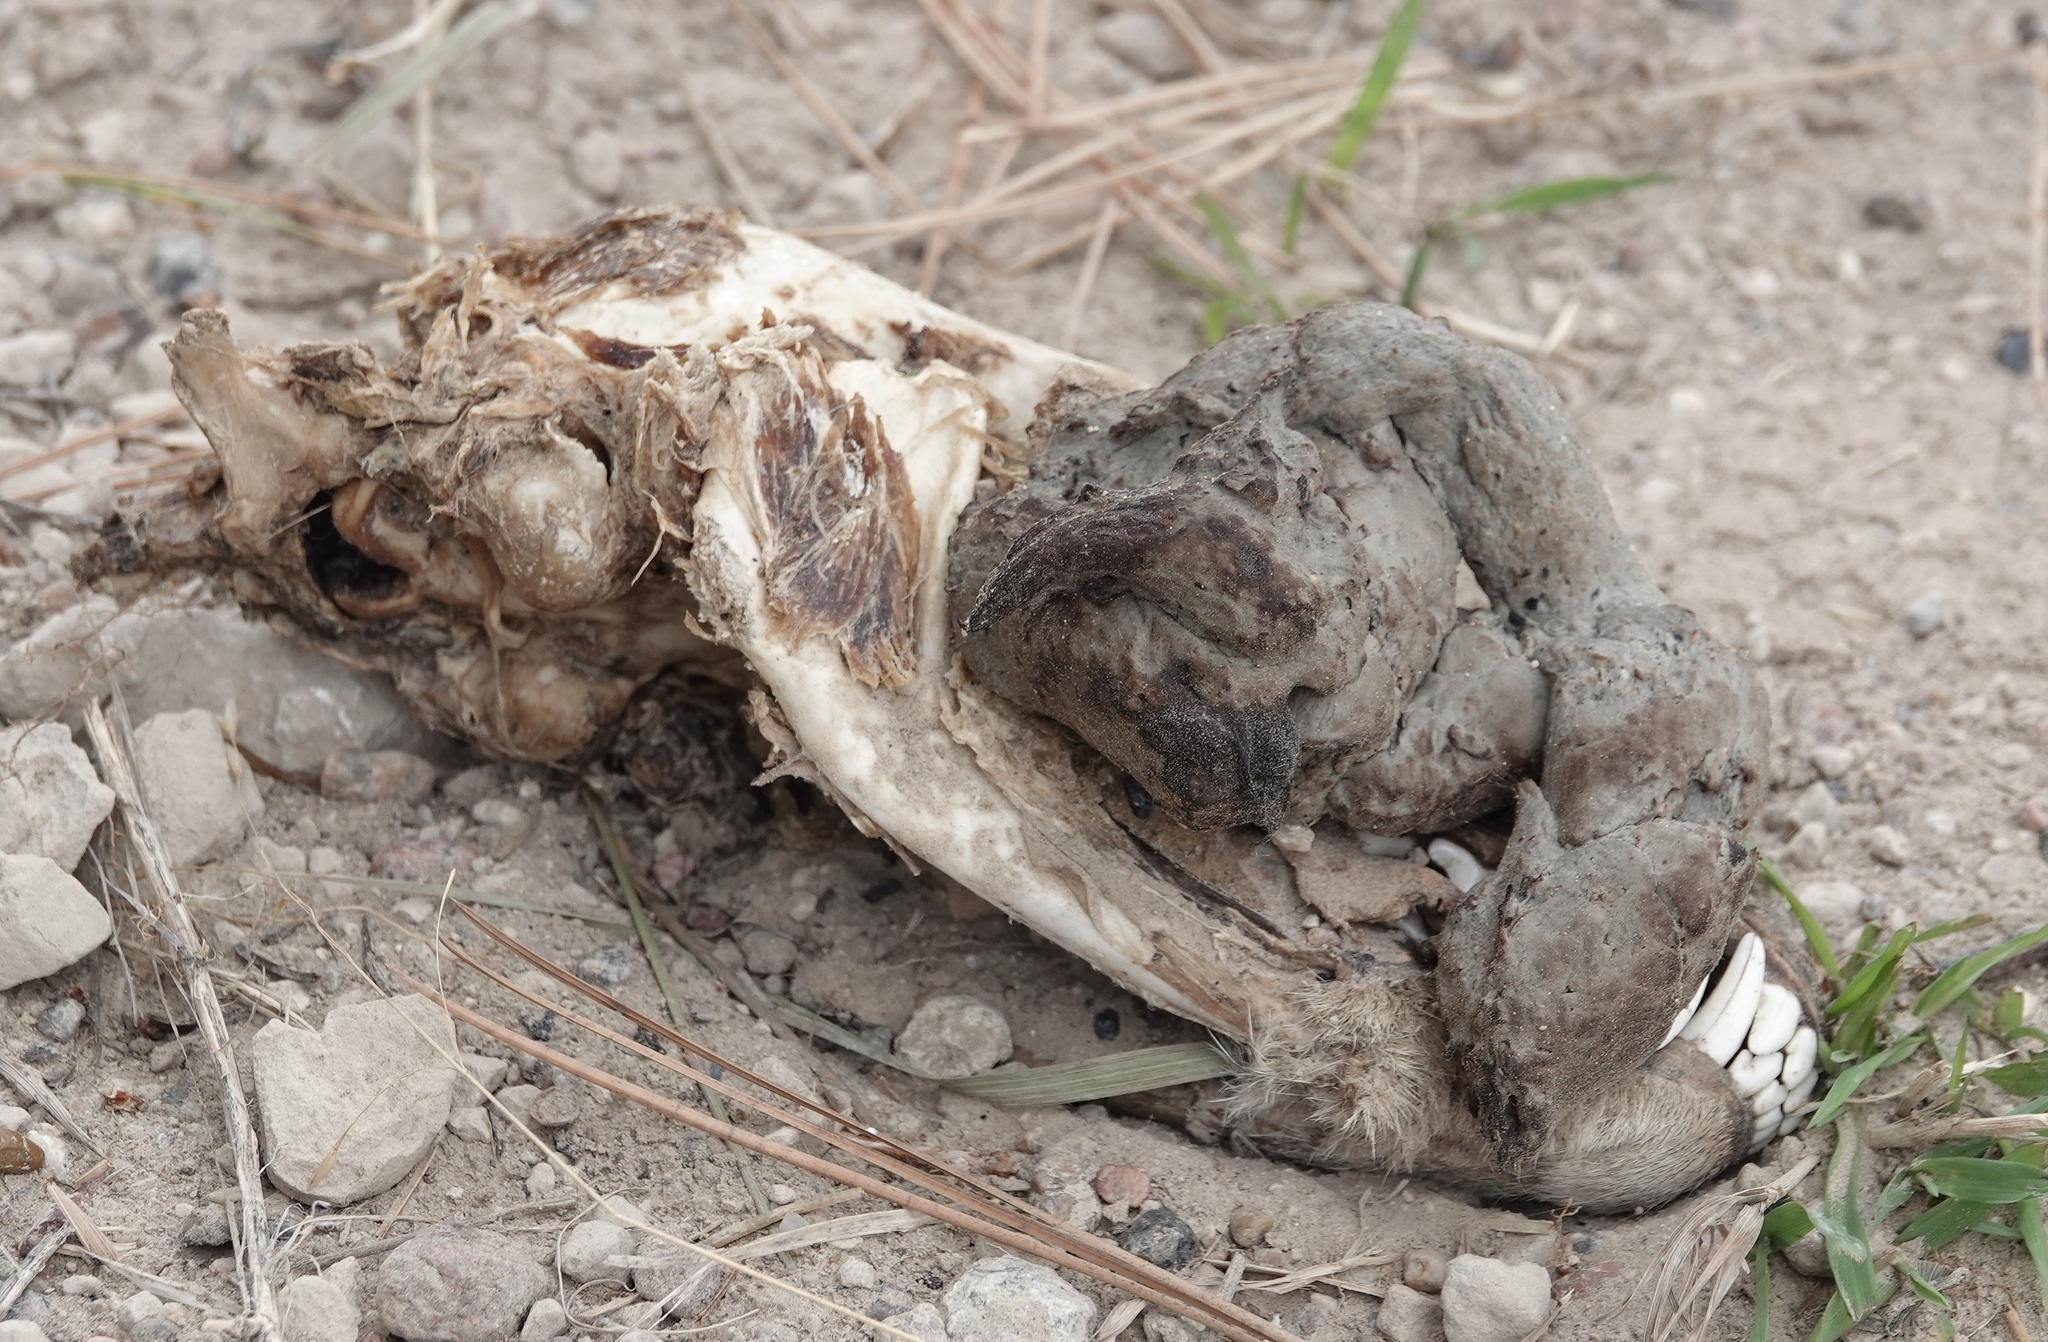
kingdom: Animalia
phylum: Chordata
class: Mammalia
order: Carnivora
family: Canidae
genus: Canis
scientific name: Canis latrans
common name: Coyote
